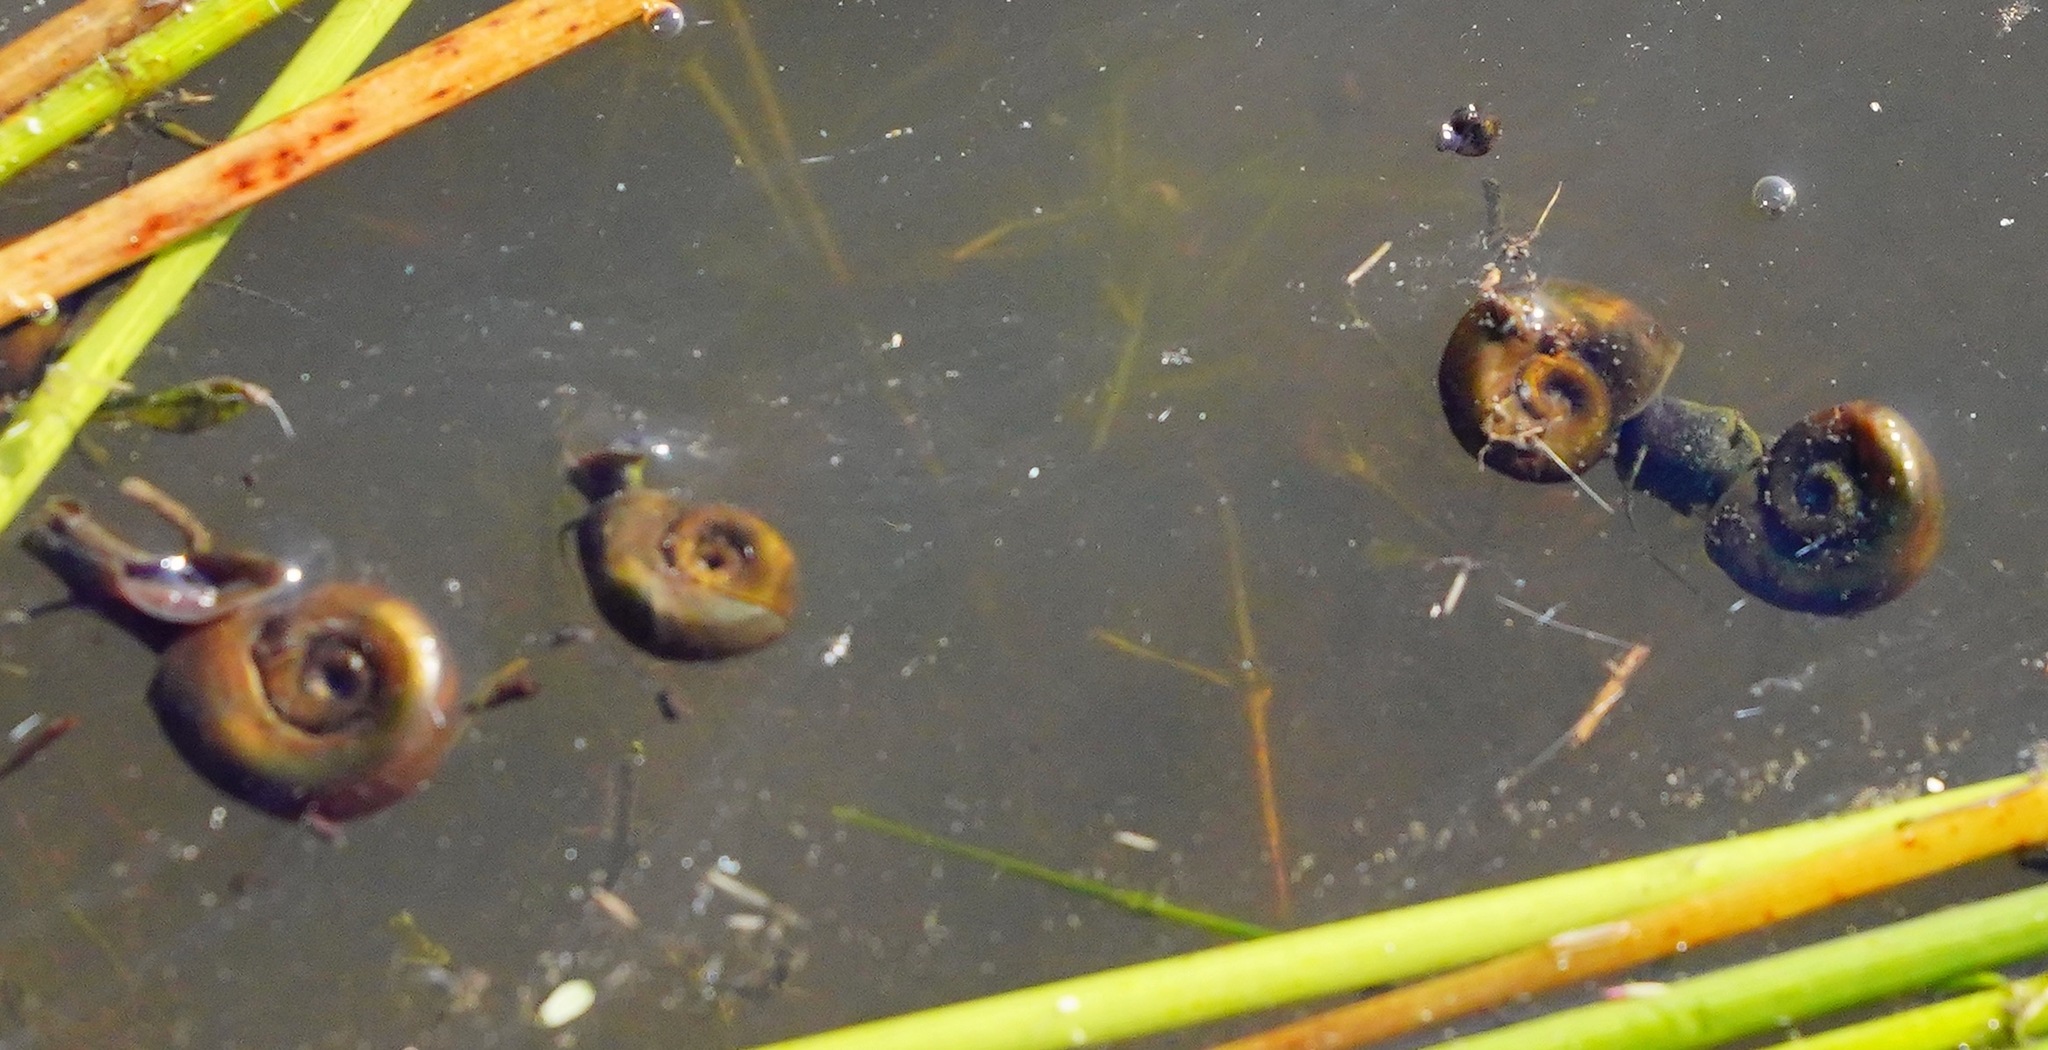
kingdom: Animalia
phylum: Mollusca
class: Gastropoda
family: Planorbidae
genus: Planorbella
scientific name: Planorbella trivolvis
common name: Marsh rams-horn
